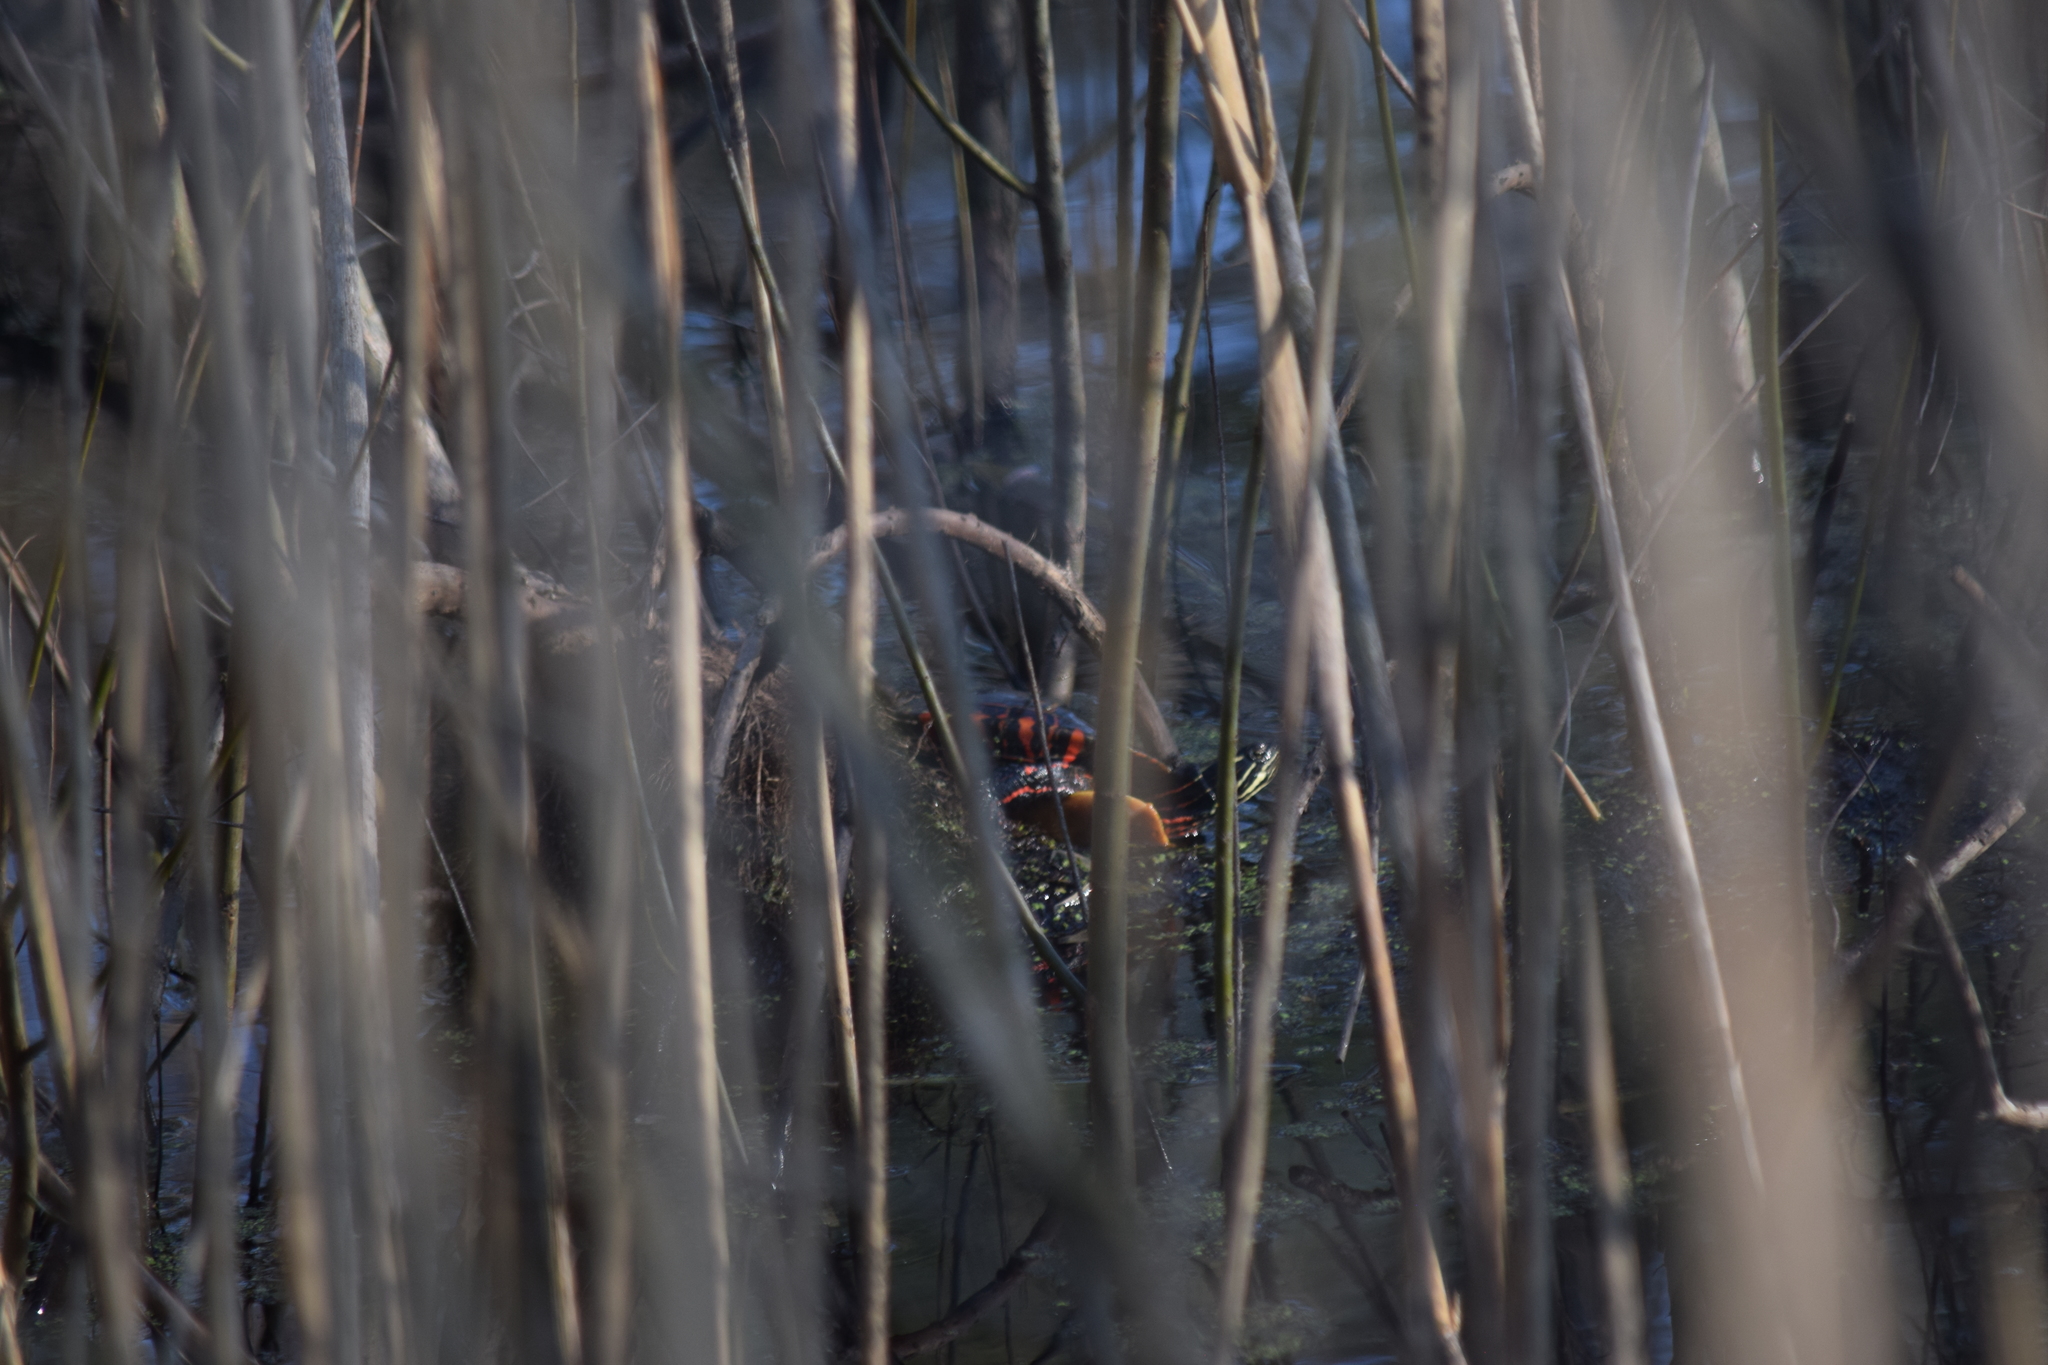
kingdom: Animalia
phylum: Chordata
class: Testudines
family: Emydidae
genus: Chrysemys
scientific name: Chrysemys picta
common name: Painted turtle
